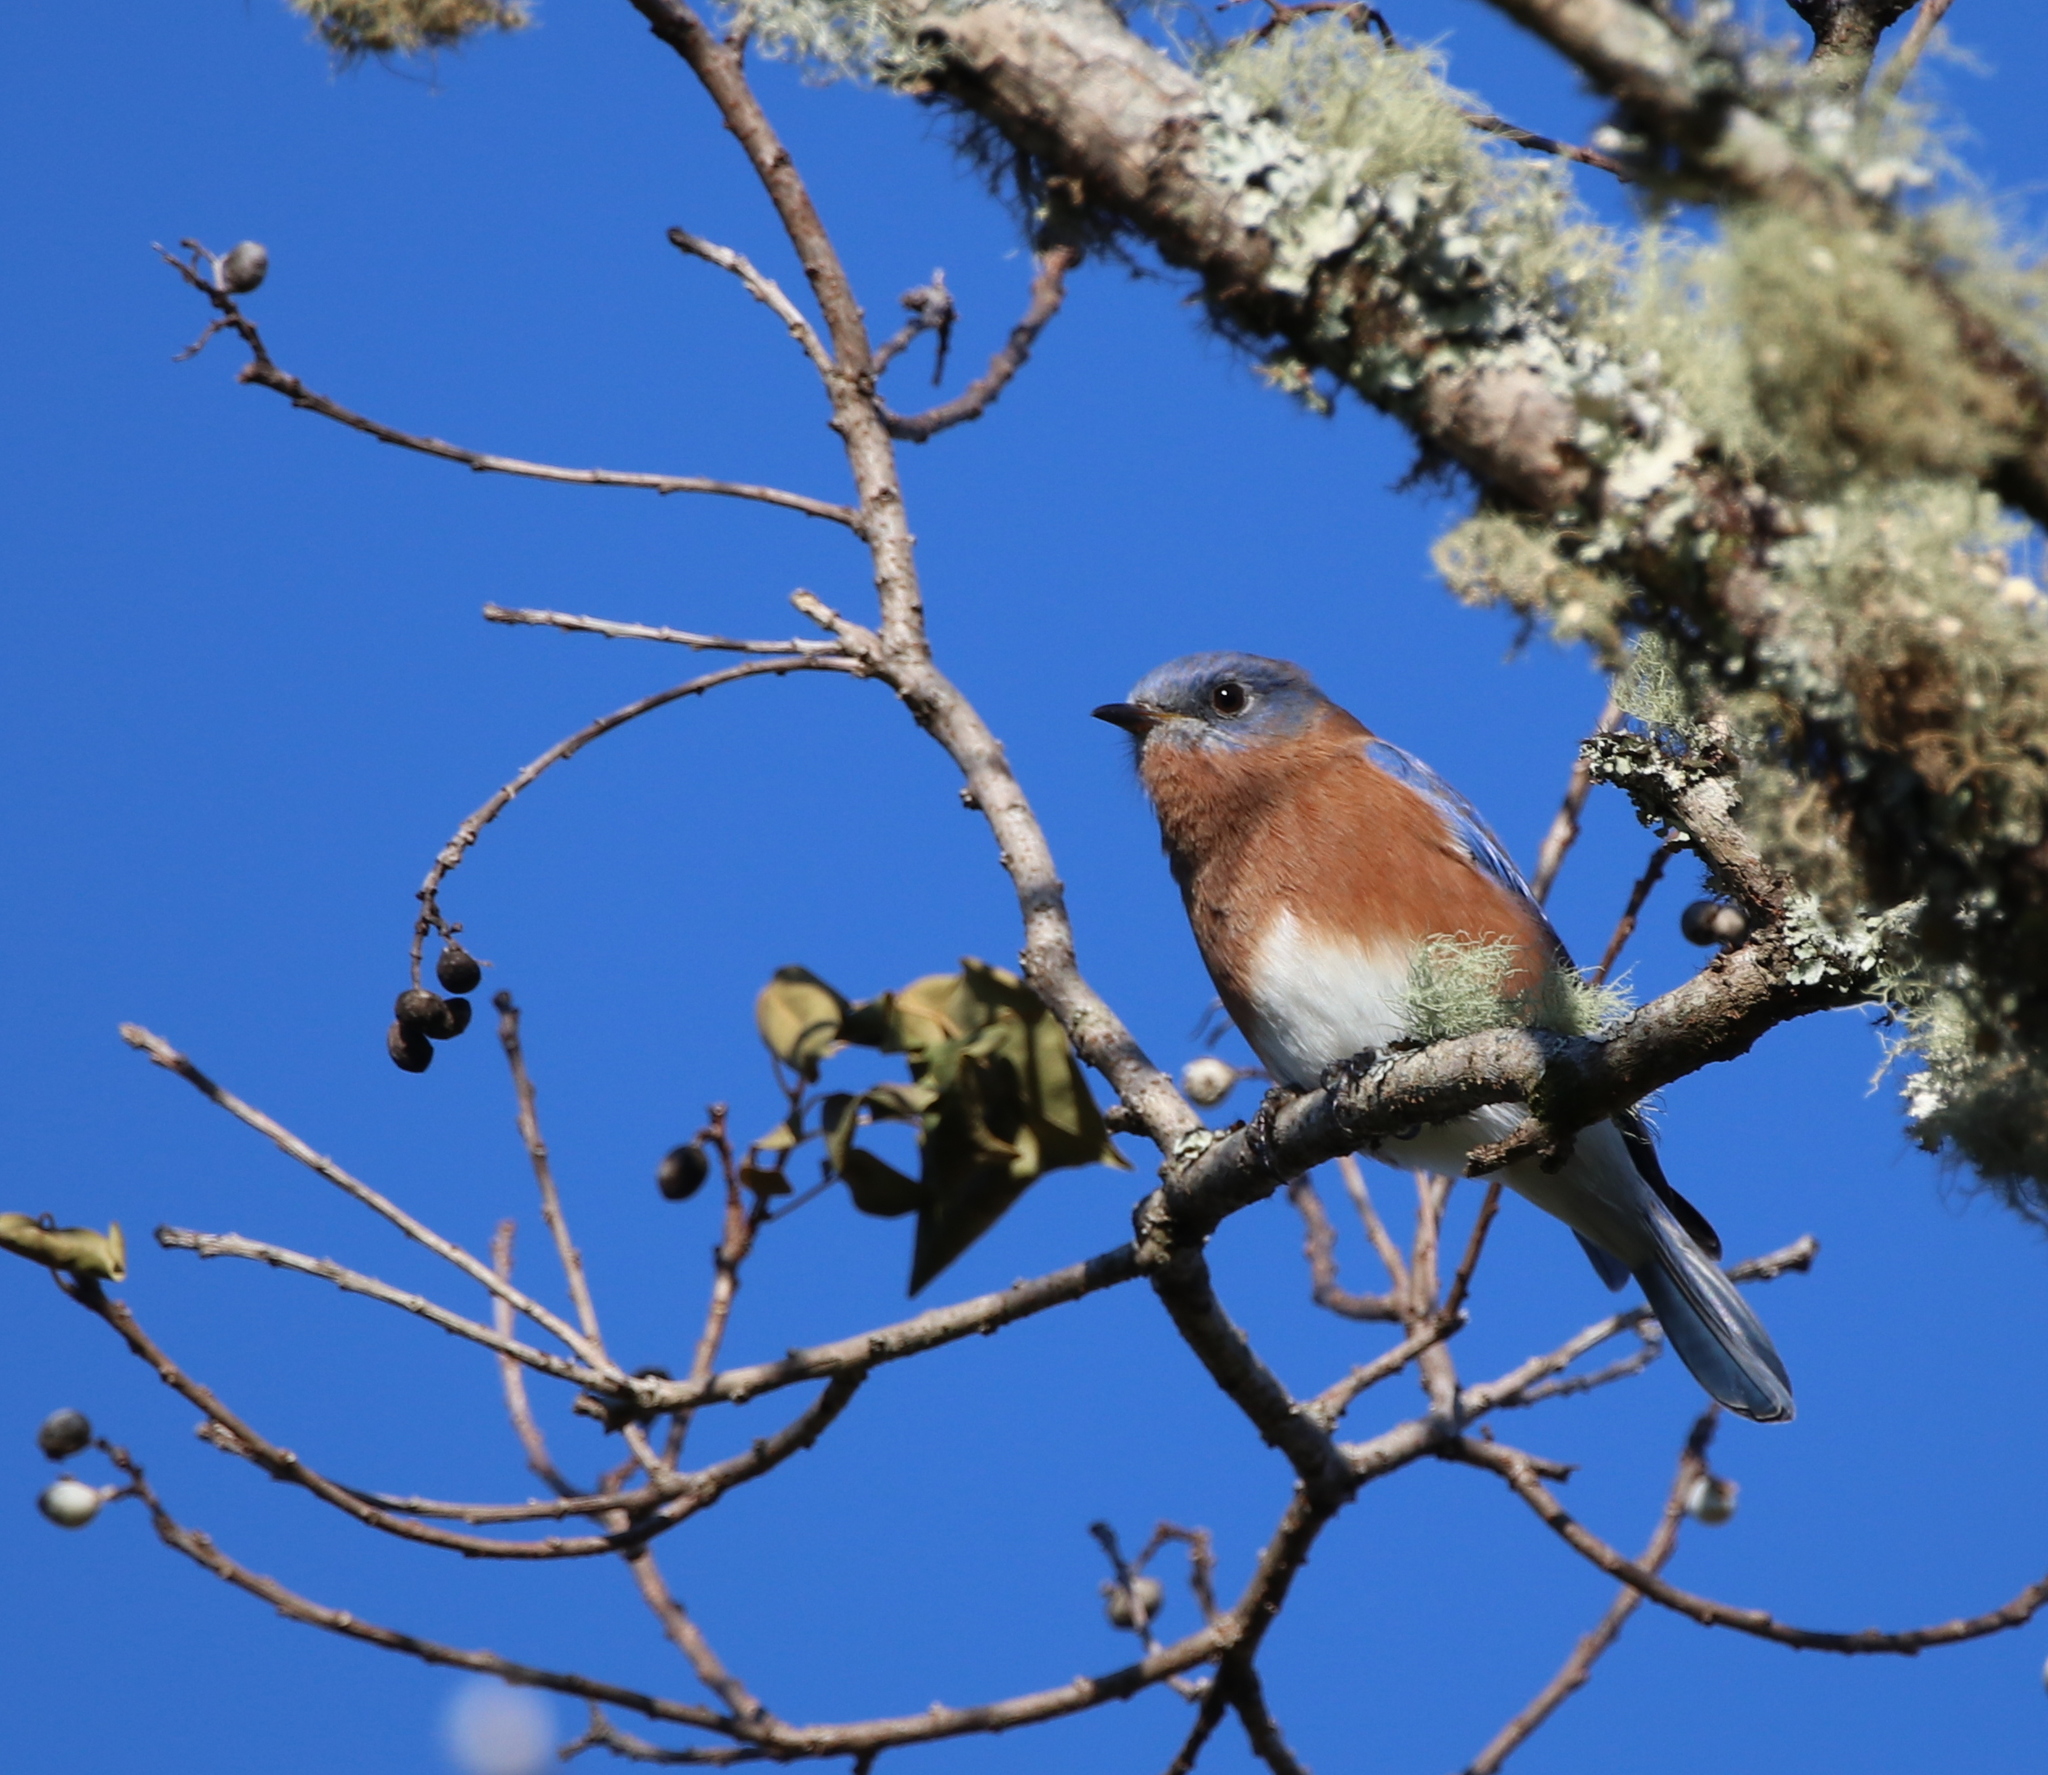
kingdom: Animalia
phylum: Chordata
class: Aves
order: Passeriformes
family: Turdidae
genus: Sialia
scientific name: Sialia sialis
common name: Eastern bluebird
